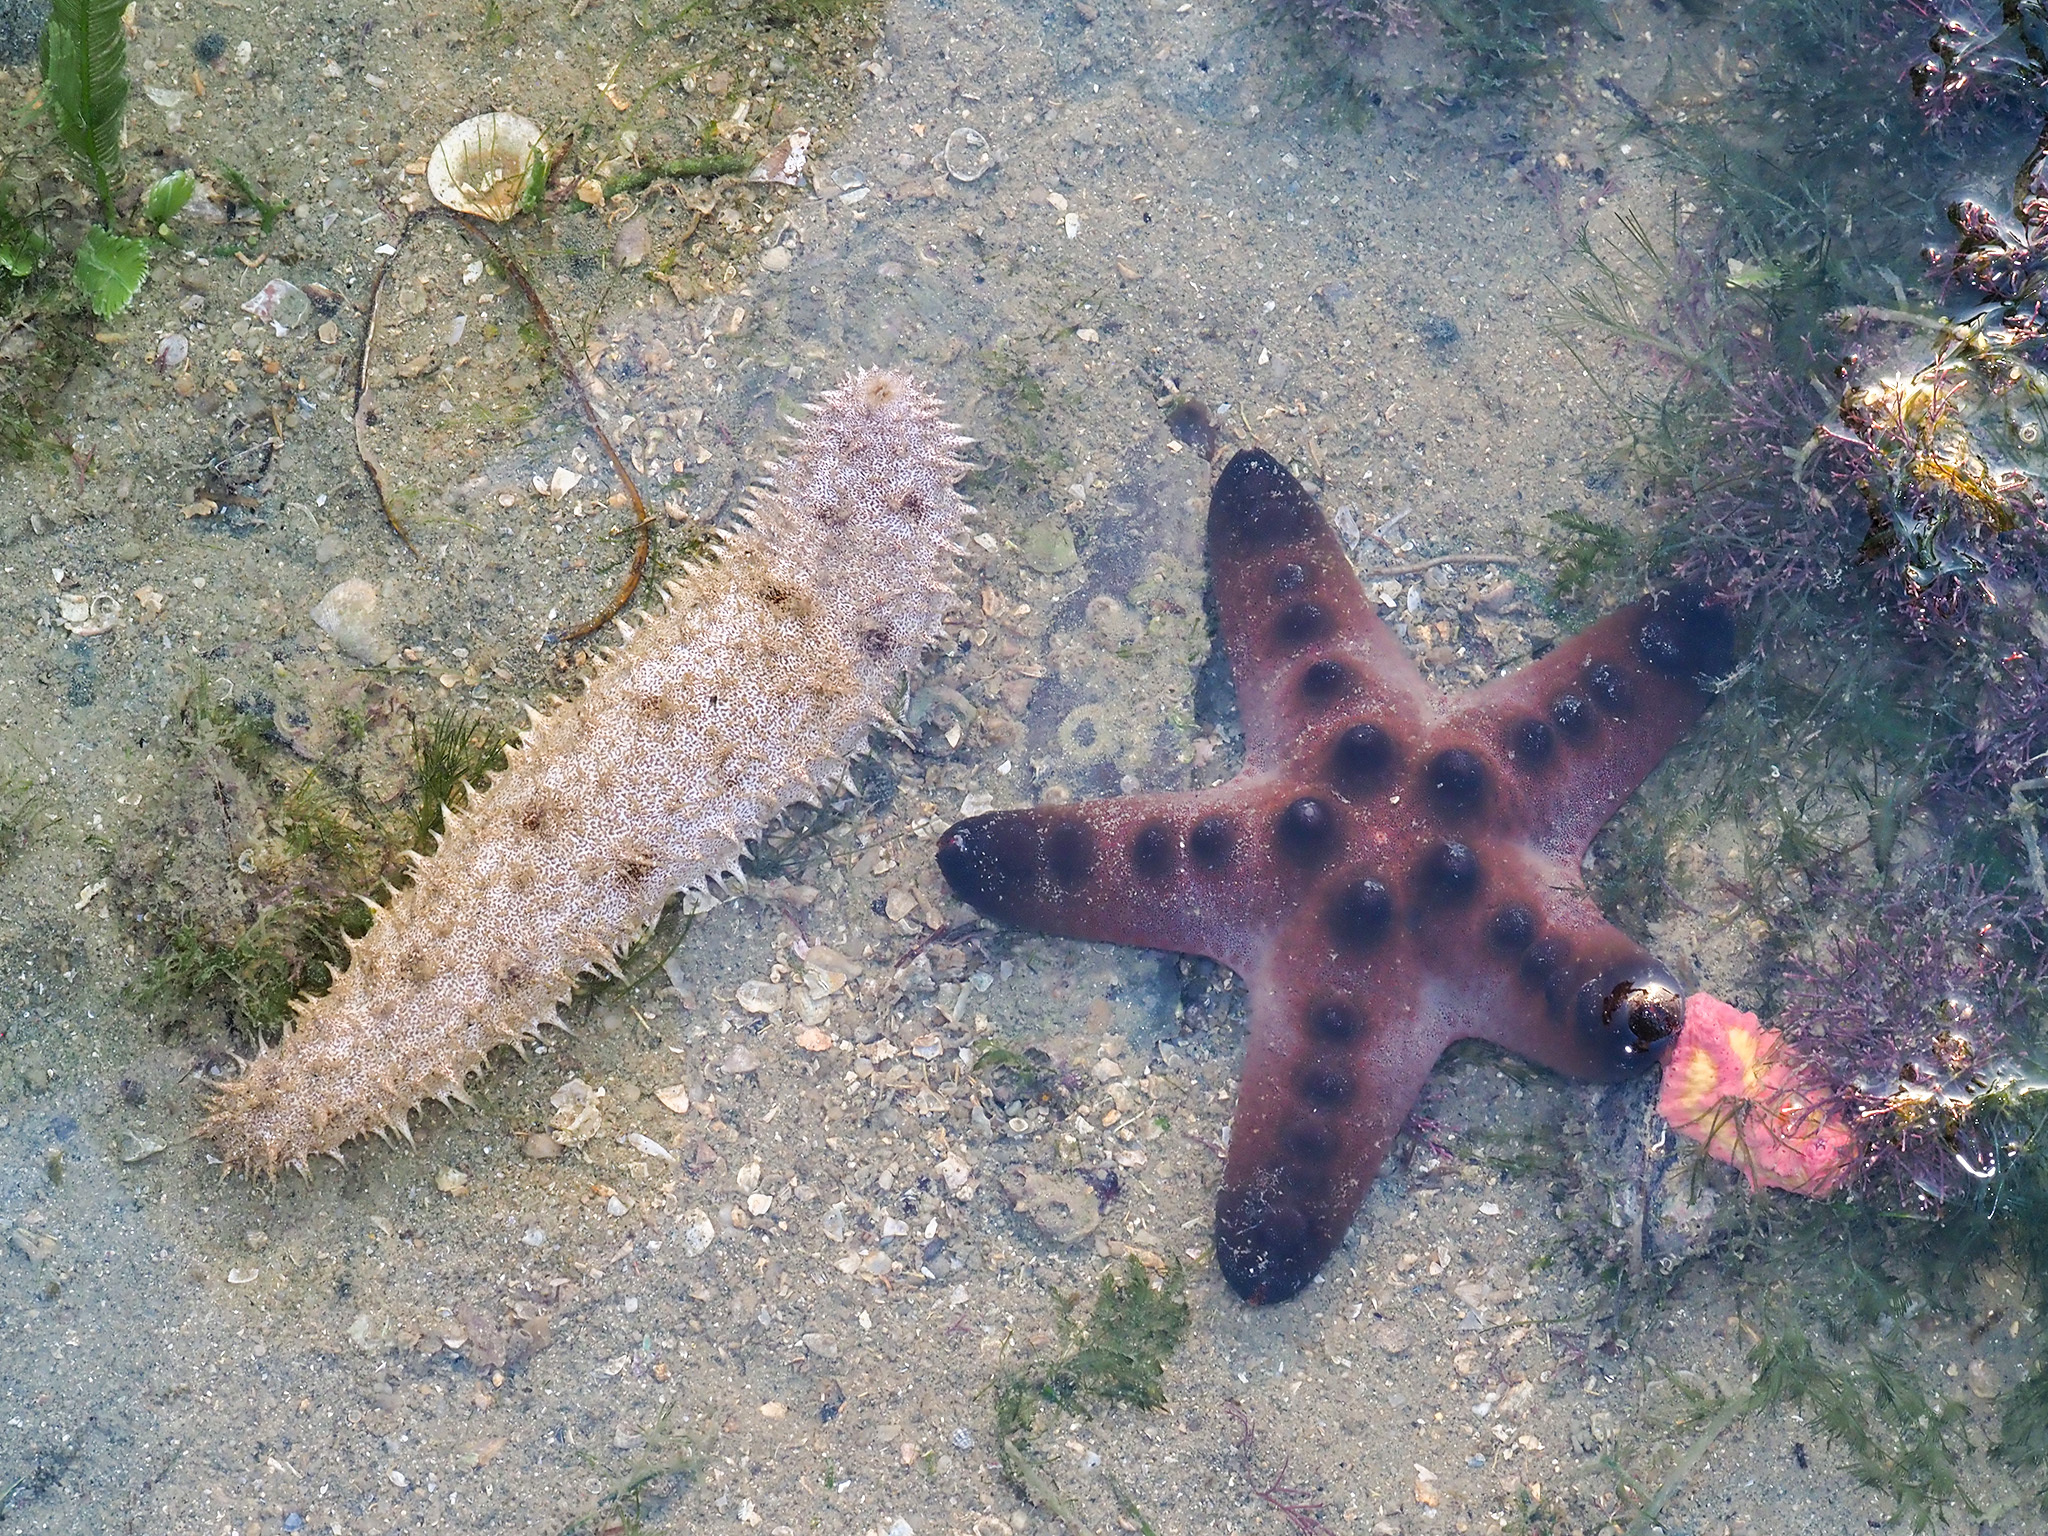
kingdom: Animalia
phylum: Echinodermata
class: Asteroidea
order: Valvatida
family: Oreasteridae
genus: Protoreaster
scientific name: Protoreaster nodosus
